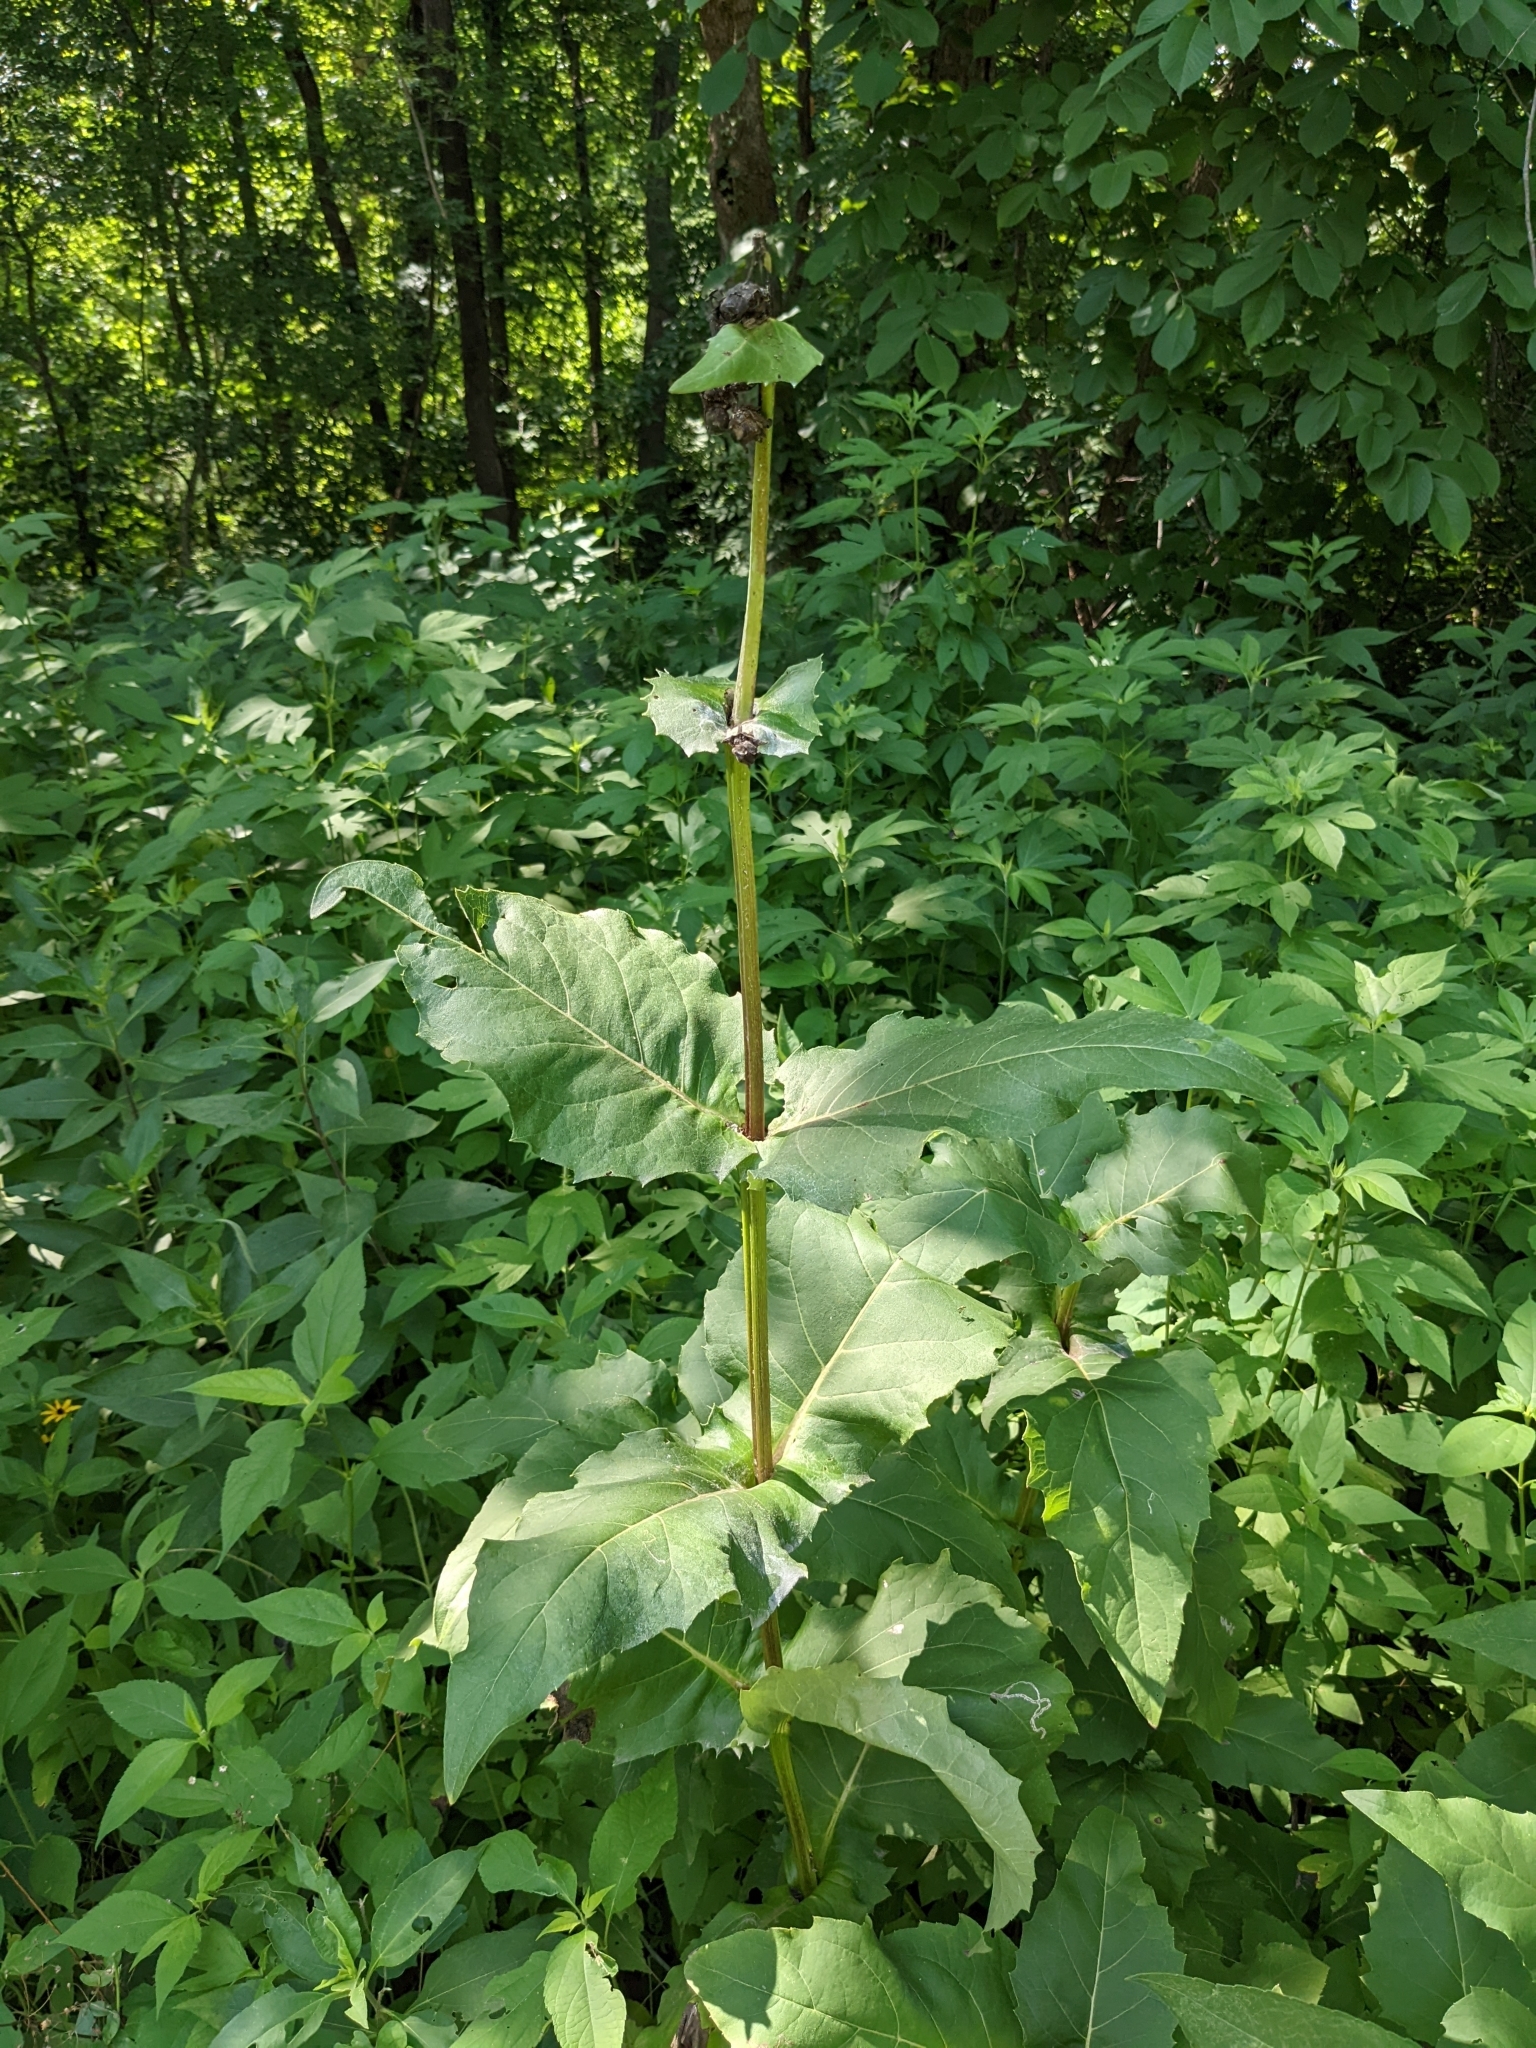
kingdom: Plantae
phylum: Tracheophyta
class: Magnoliopsida
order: Asterales
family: Asteraceae
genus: Silphium
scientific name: Silphium perfoliatum
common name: Cup-plant
